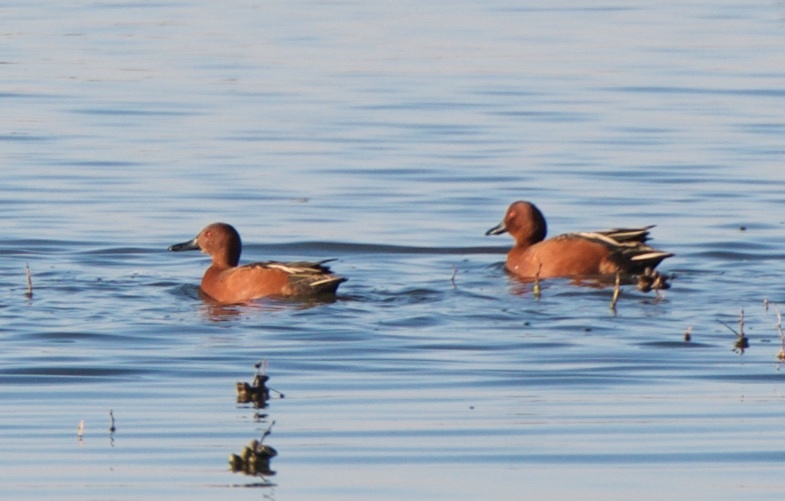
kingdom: Animalia
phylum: Chordata
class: Aves
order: Anseriformes
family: Anatidae
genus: Spatula
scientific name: Spatula cyanoptera
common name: Cinnamon teal
